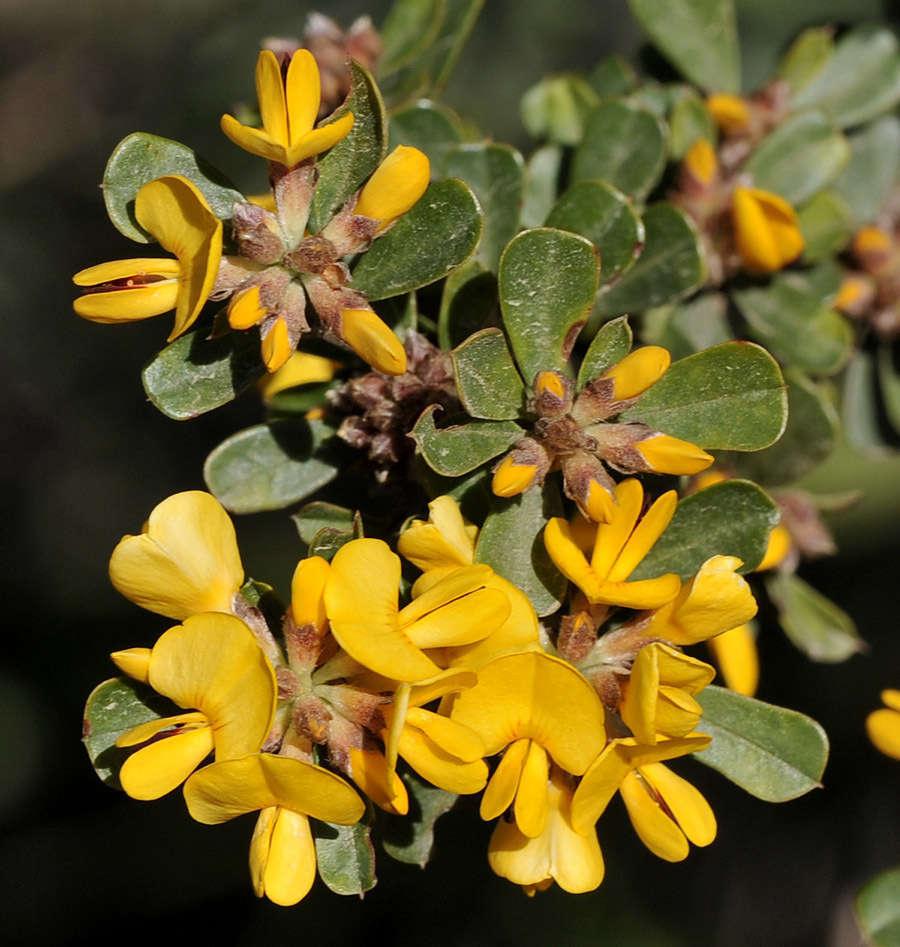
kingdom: Plantae
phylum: Tracheophyta
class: Magnoliopsida
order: Fabales
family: Fabaceae
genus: Pultenaea
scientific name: Pultenaea daphnoides
